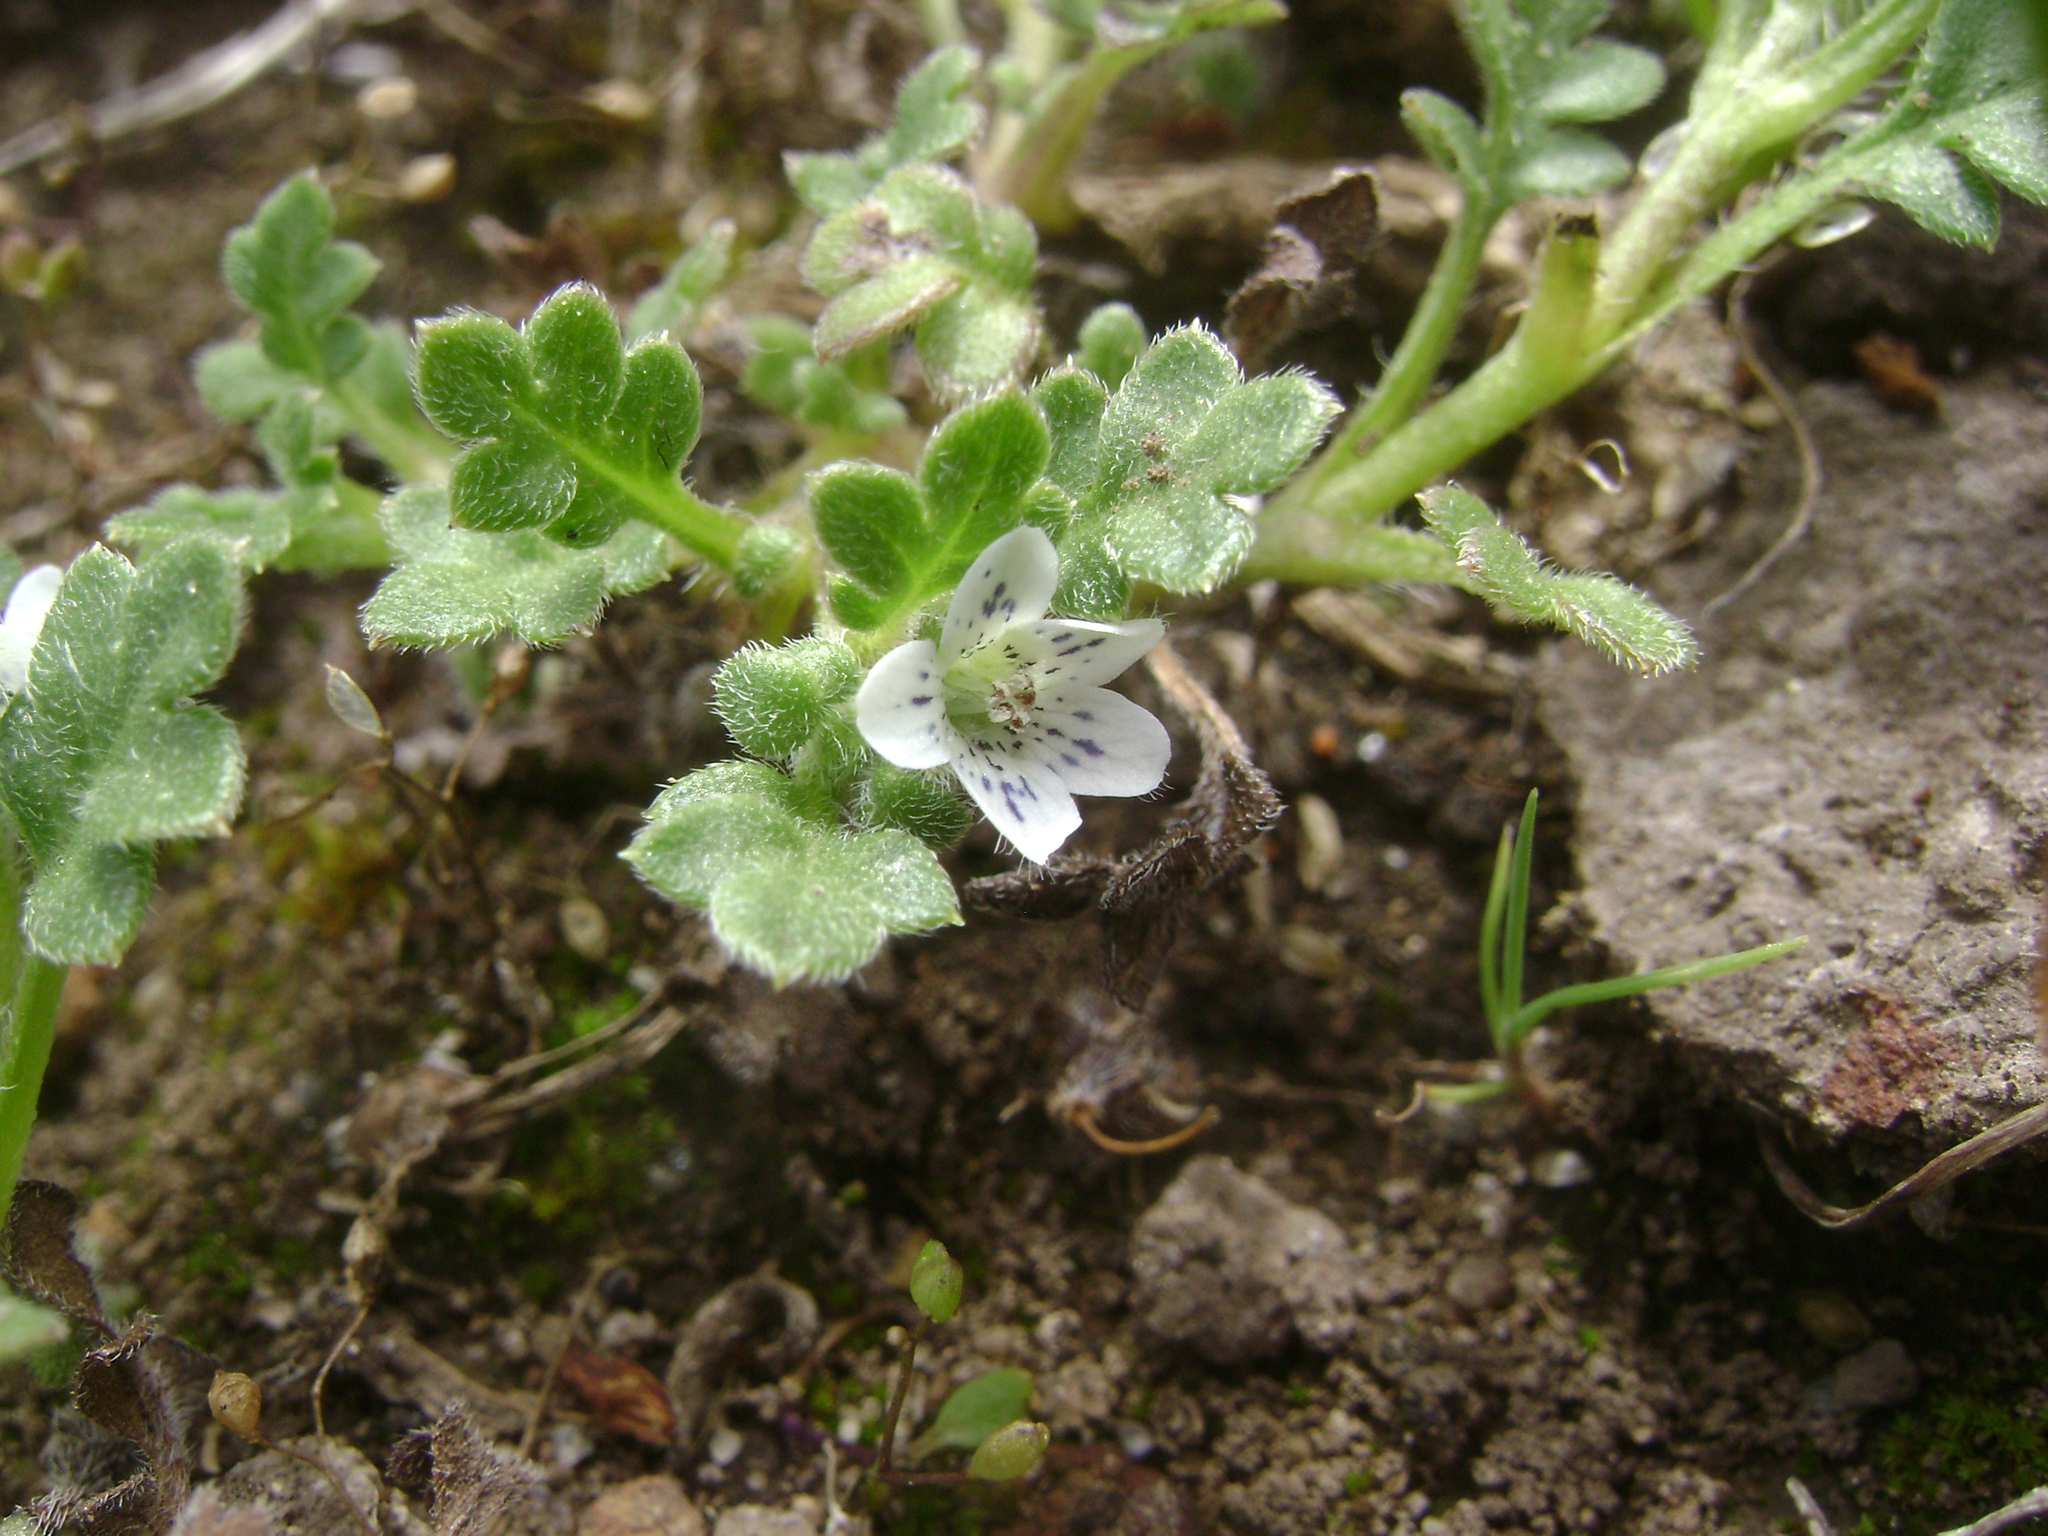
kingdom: Plantae
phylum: Tracheophyta
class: Magnoliopsida
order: Boraginales
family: Hydrophyllaceae
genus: Nemophila
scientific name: Nemophila pedunculata
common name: Little-foot baby-blue-eyes
